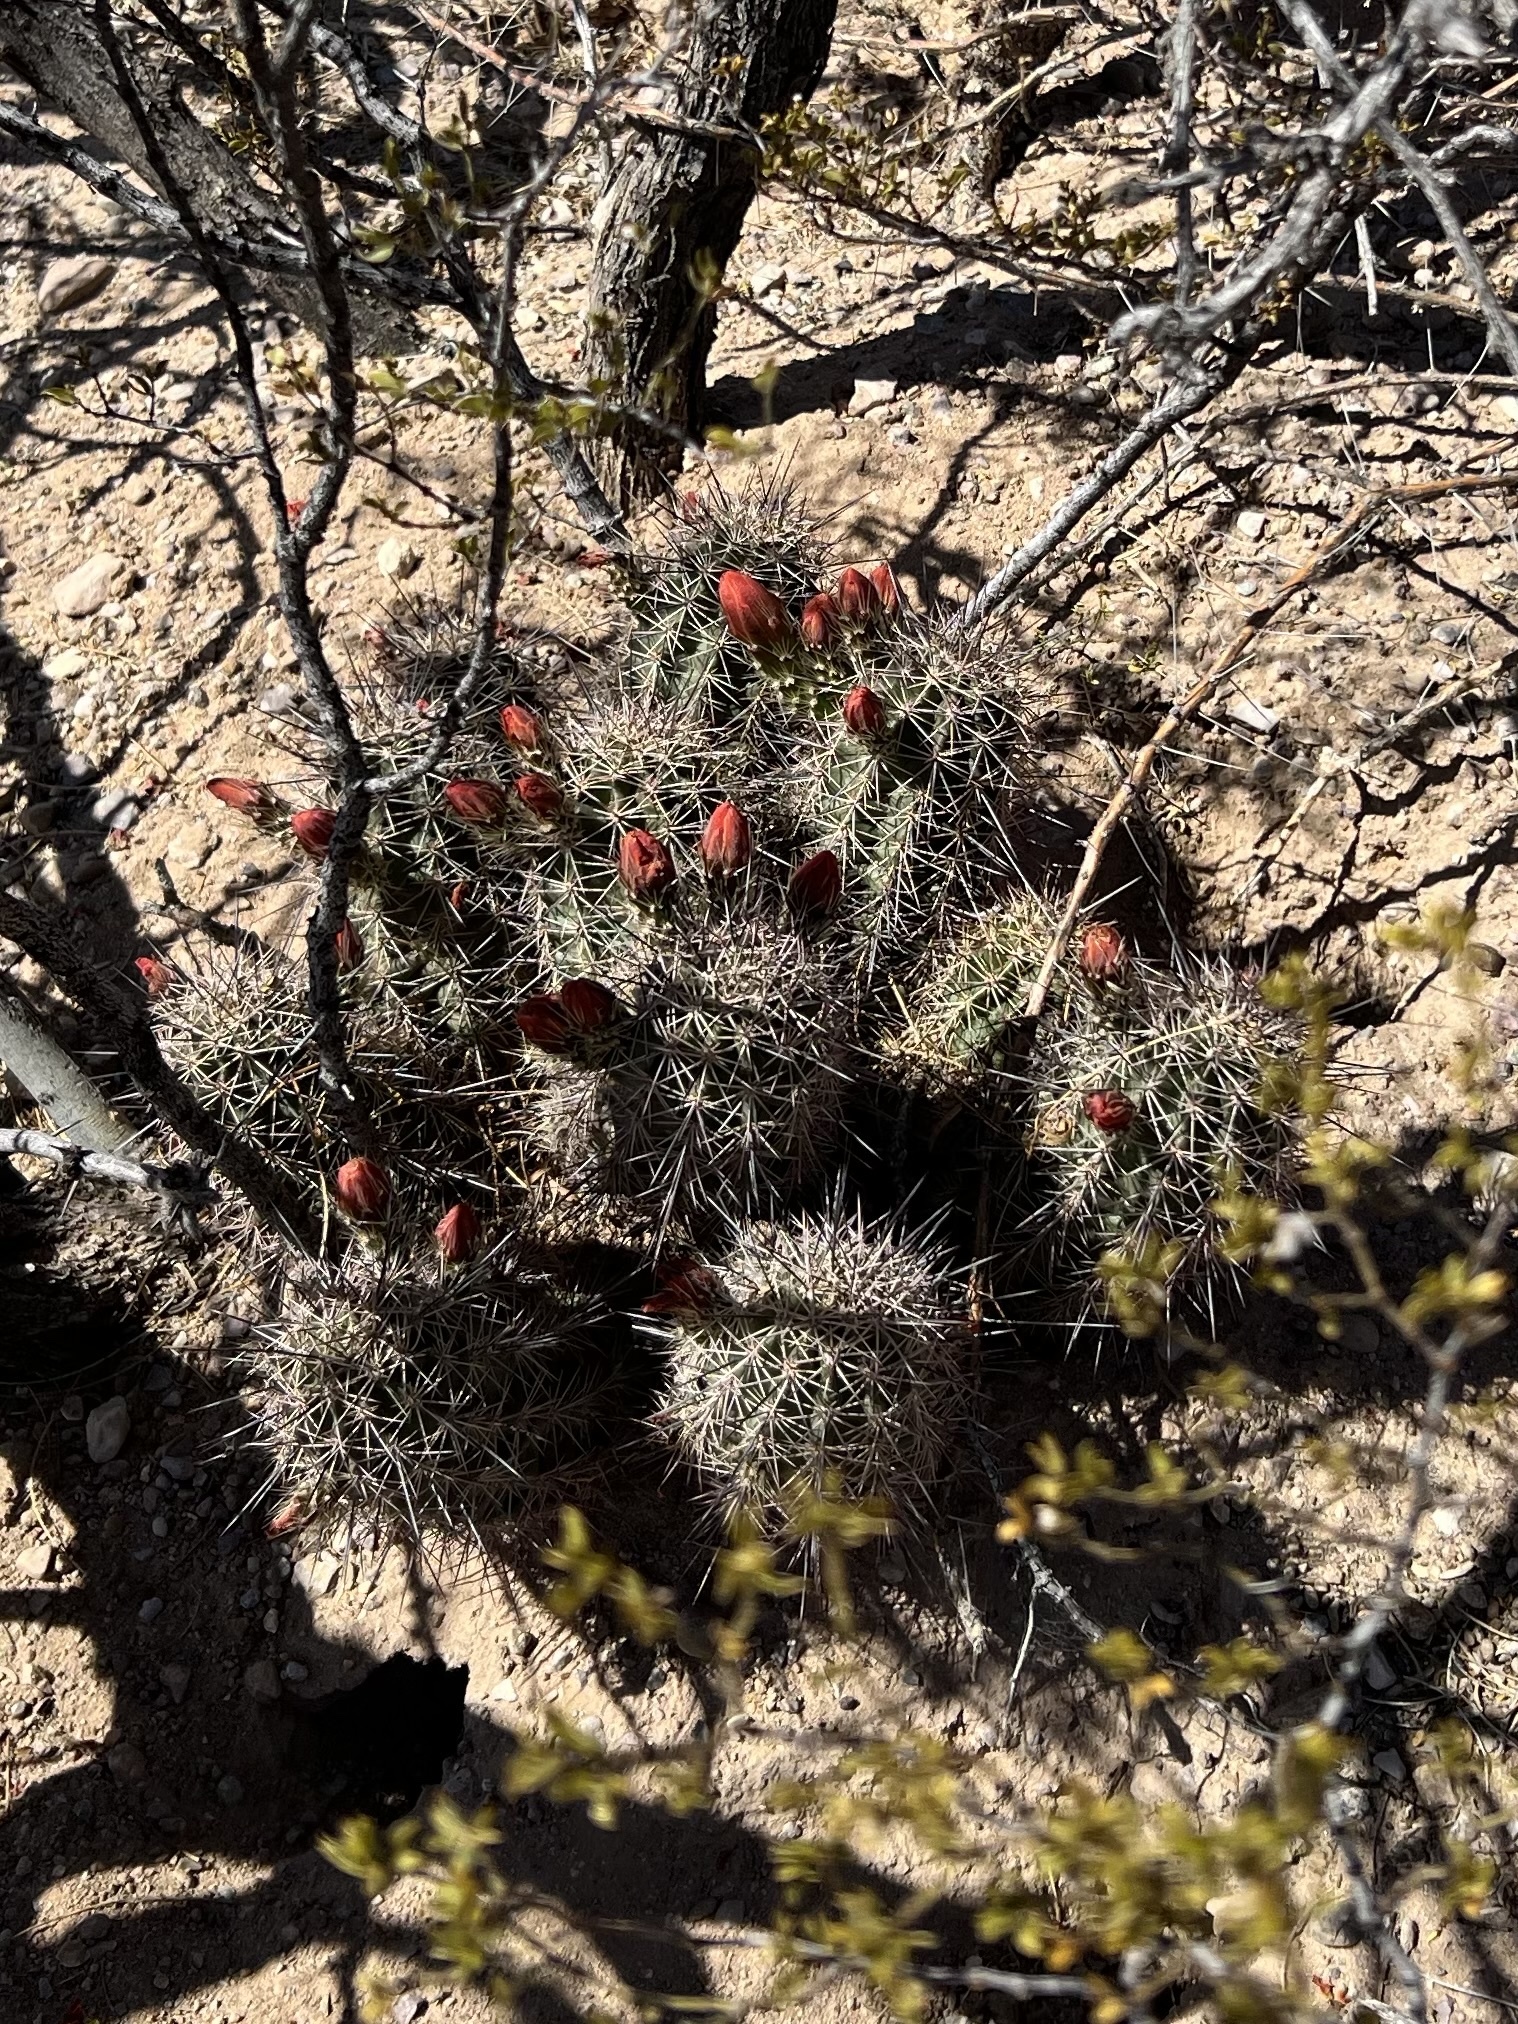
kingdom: Plantae
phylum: Tracheophyta
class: Magnoliopsida
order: Caryophyllales
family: Cactaceae
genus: Echinocereus
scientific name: Echinocereus coccineus
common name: Scarlet hedgehog cactus
